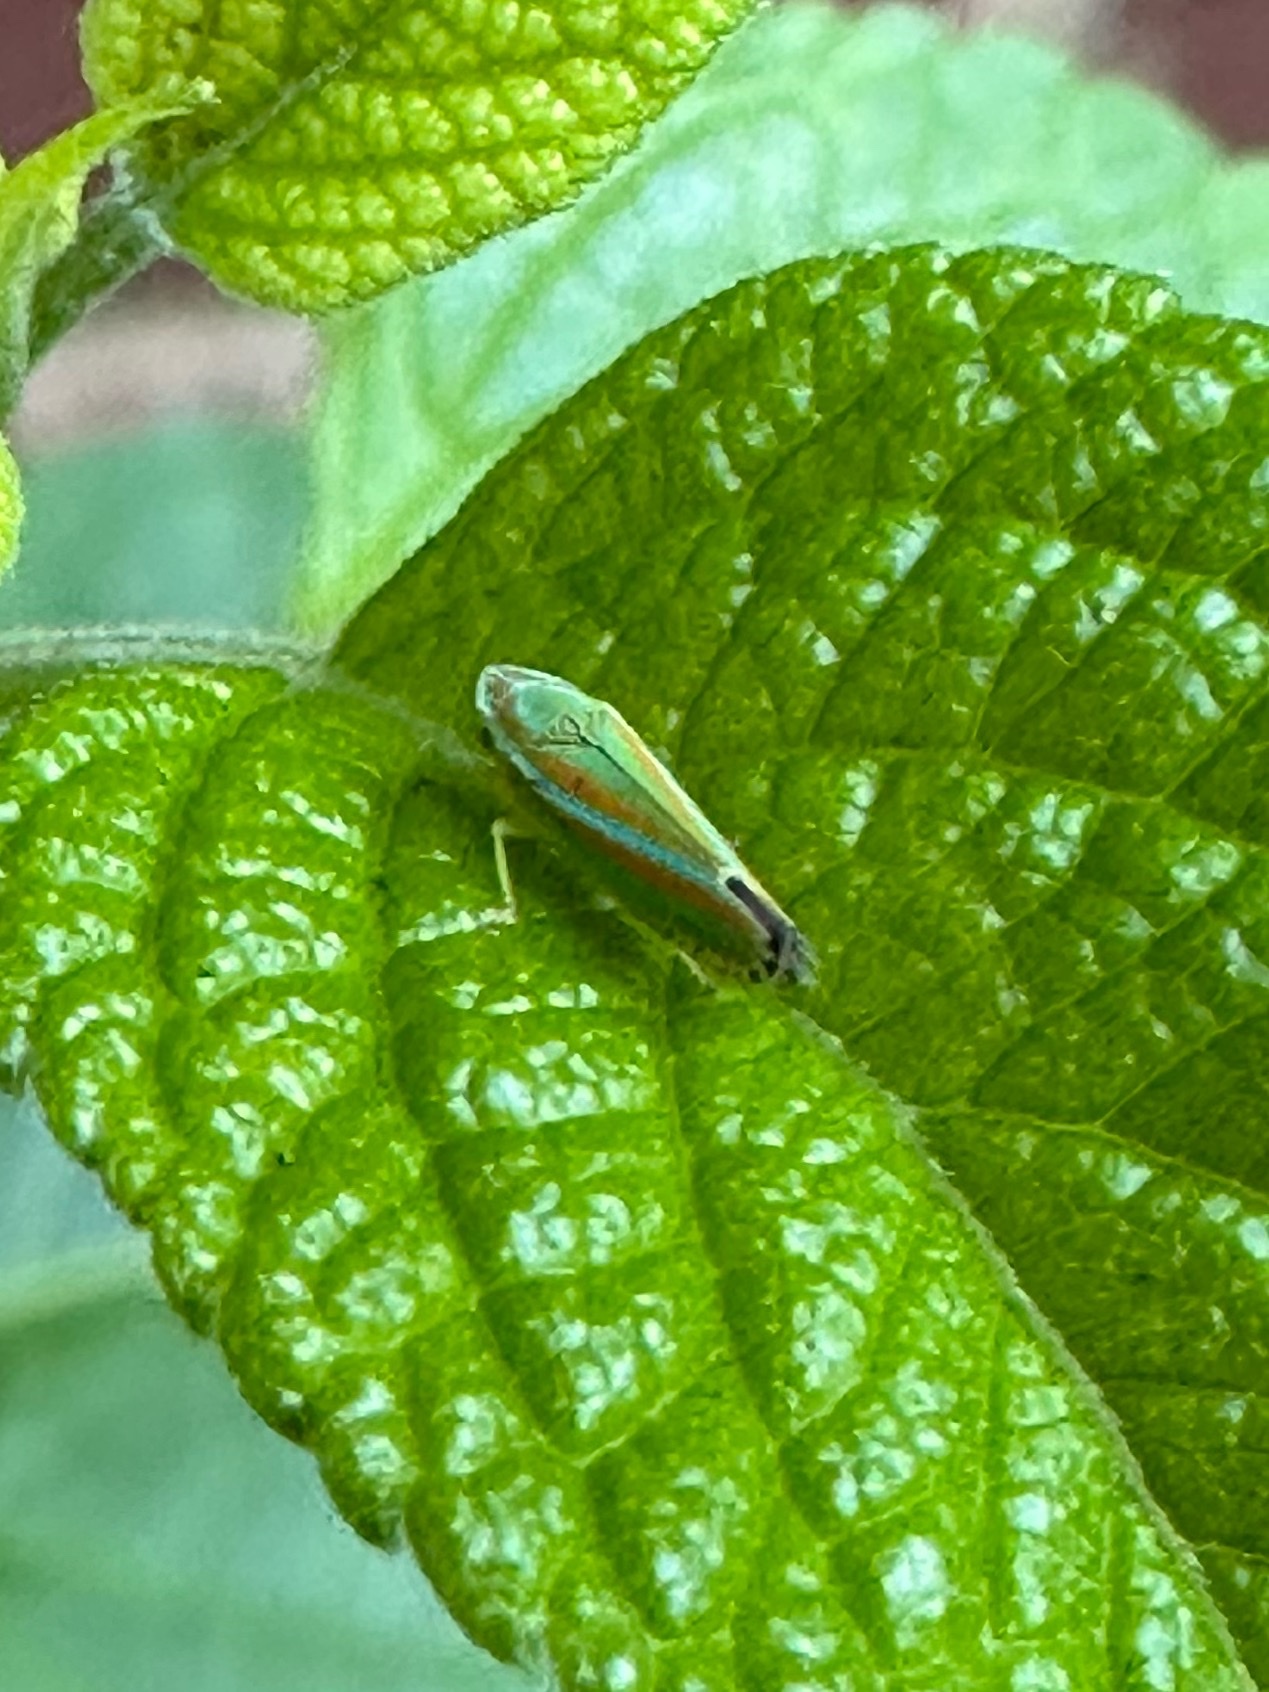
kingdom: Animalia
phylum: Arthropoda
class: Insecta
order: Hemiptera
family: Cicadellidae
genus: Graphocephala
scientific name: Graphocephala versuta
